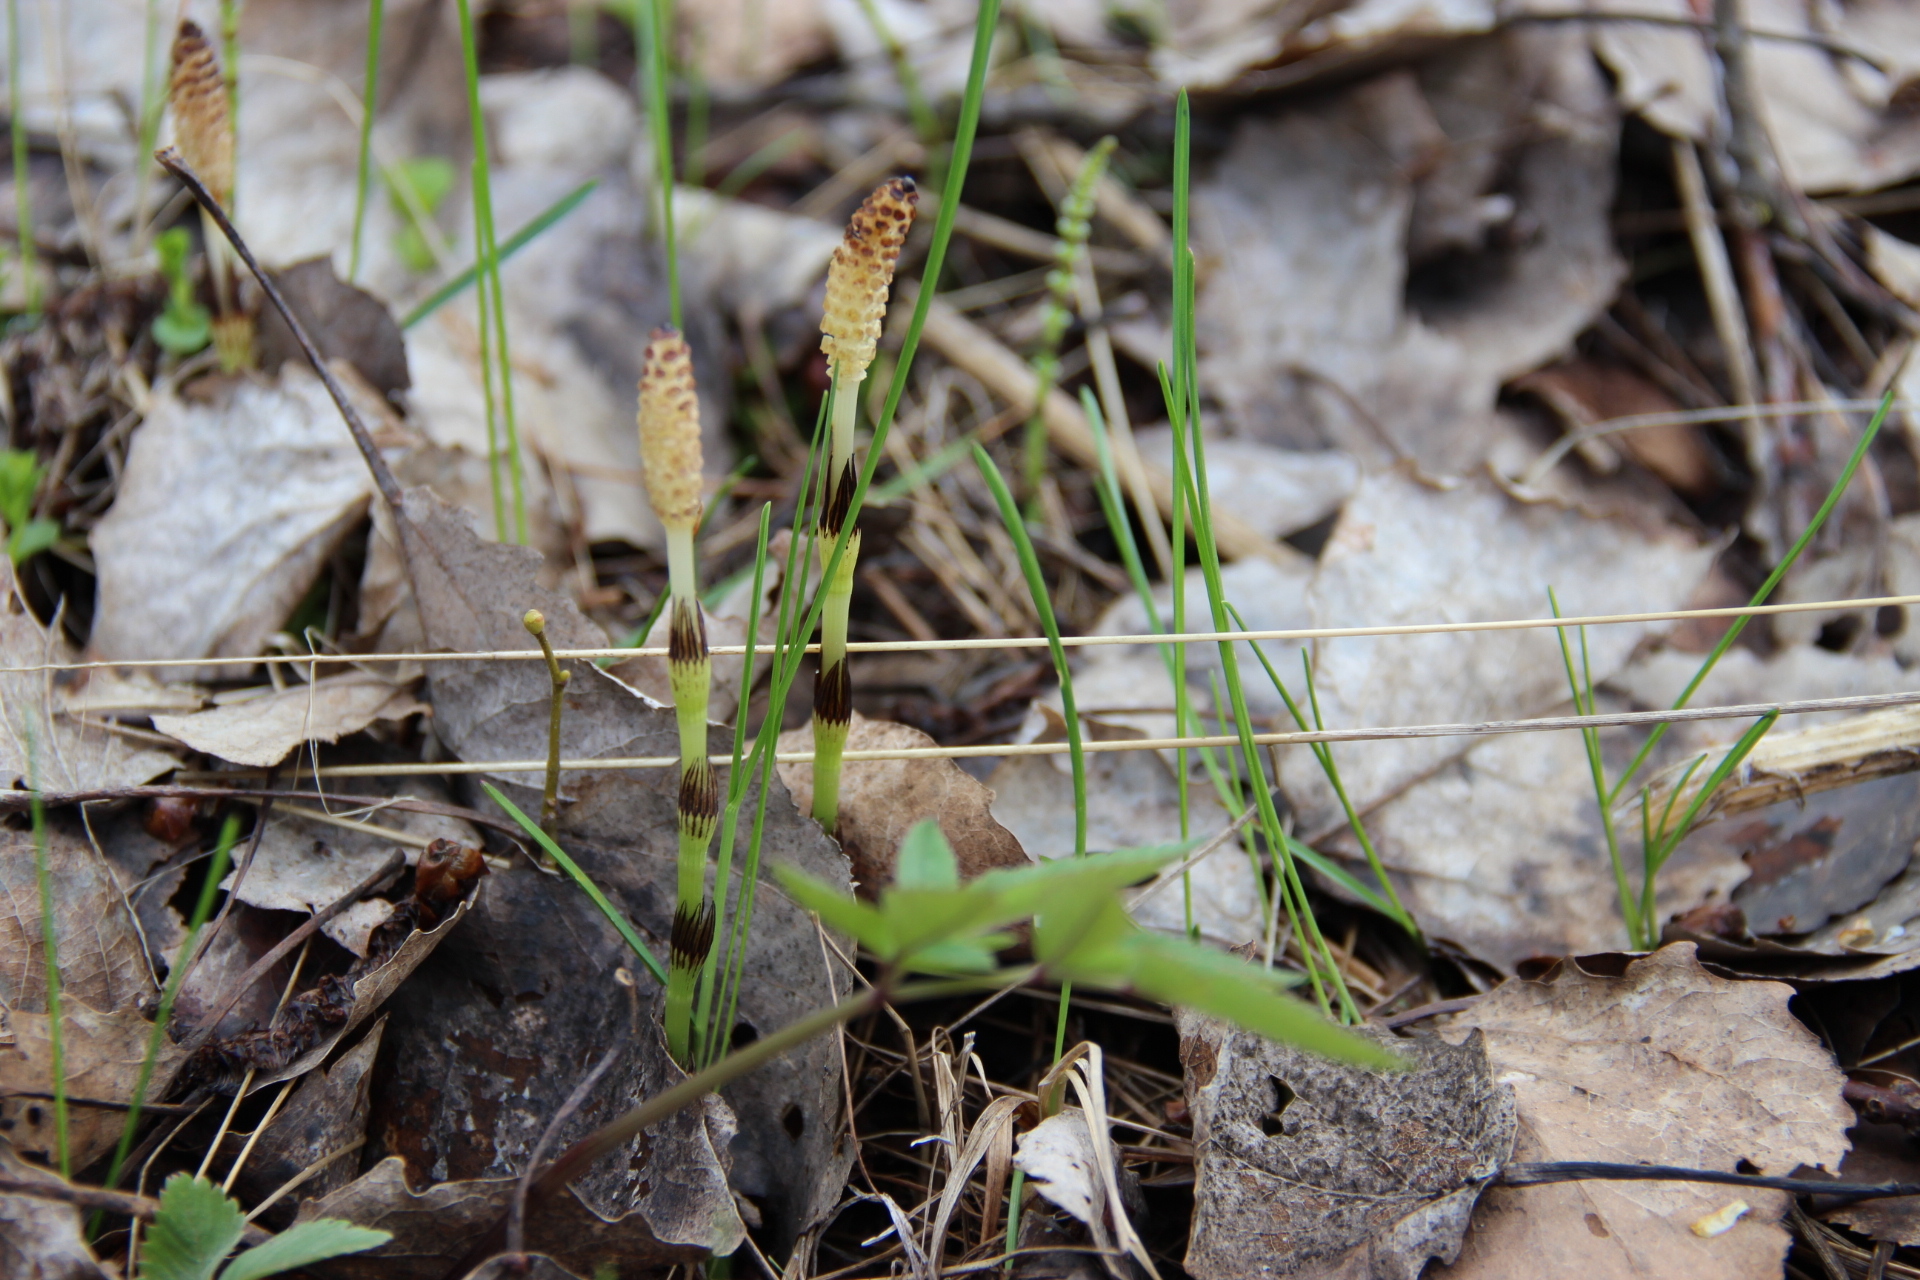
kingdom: Plantae
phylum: Tracheophyta
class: Polypodiopsida
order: Equisetales
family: Equisetaceae
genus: Equisetum
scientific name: Equisetum pratense
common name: Meadow horsetail
